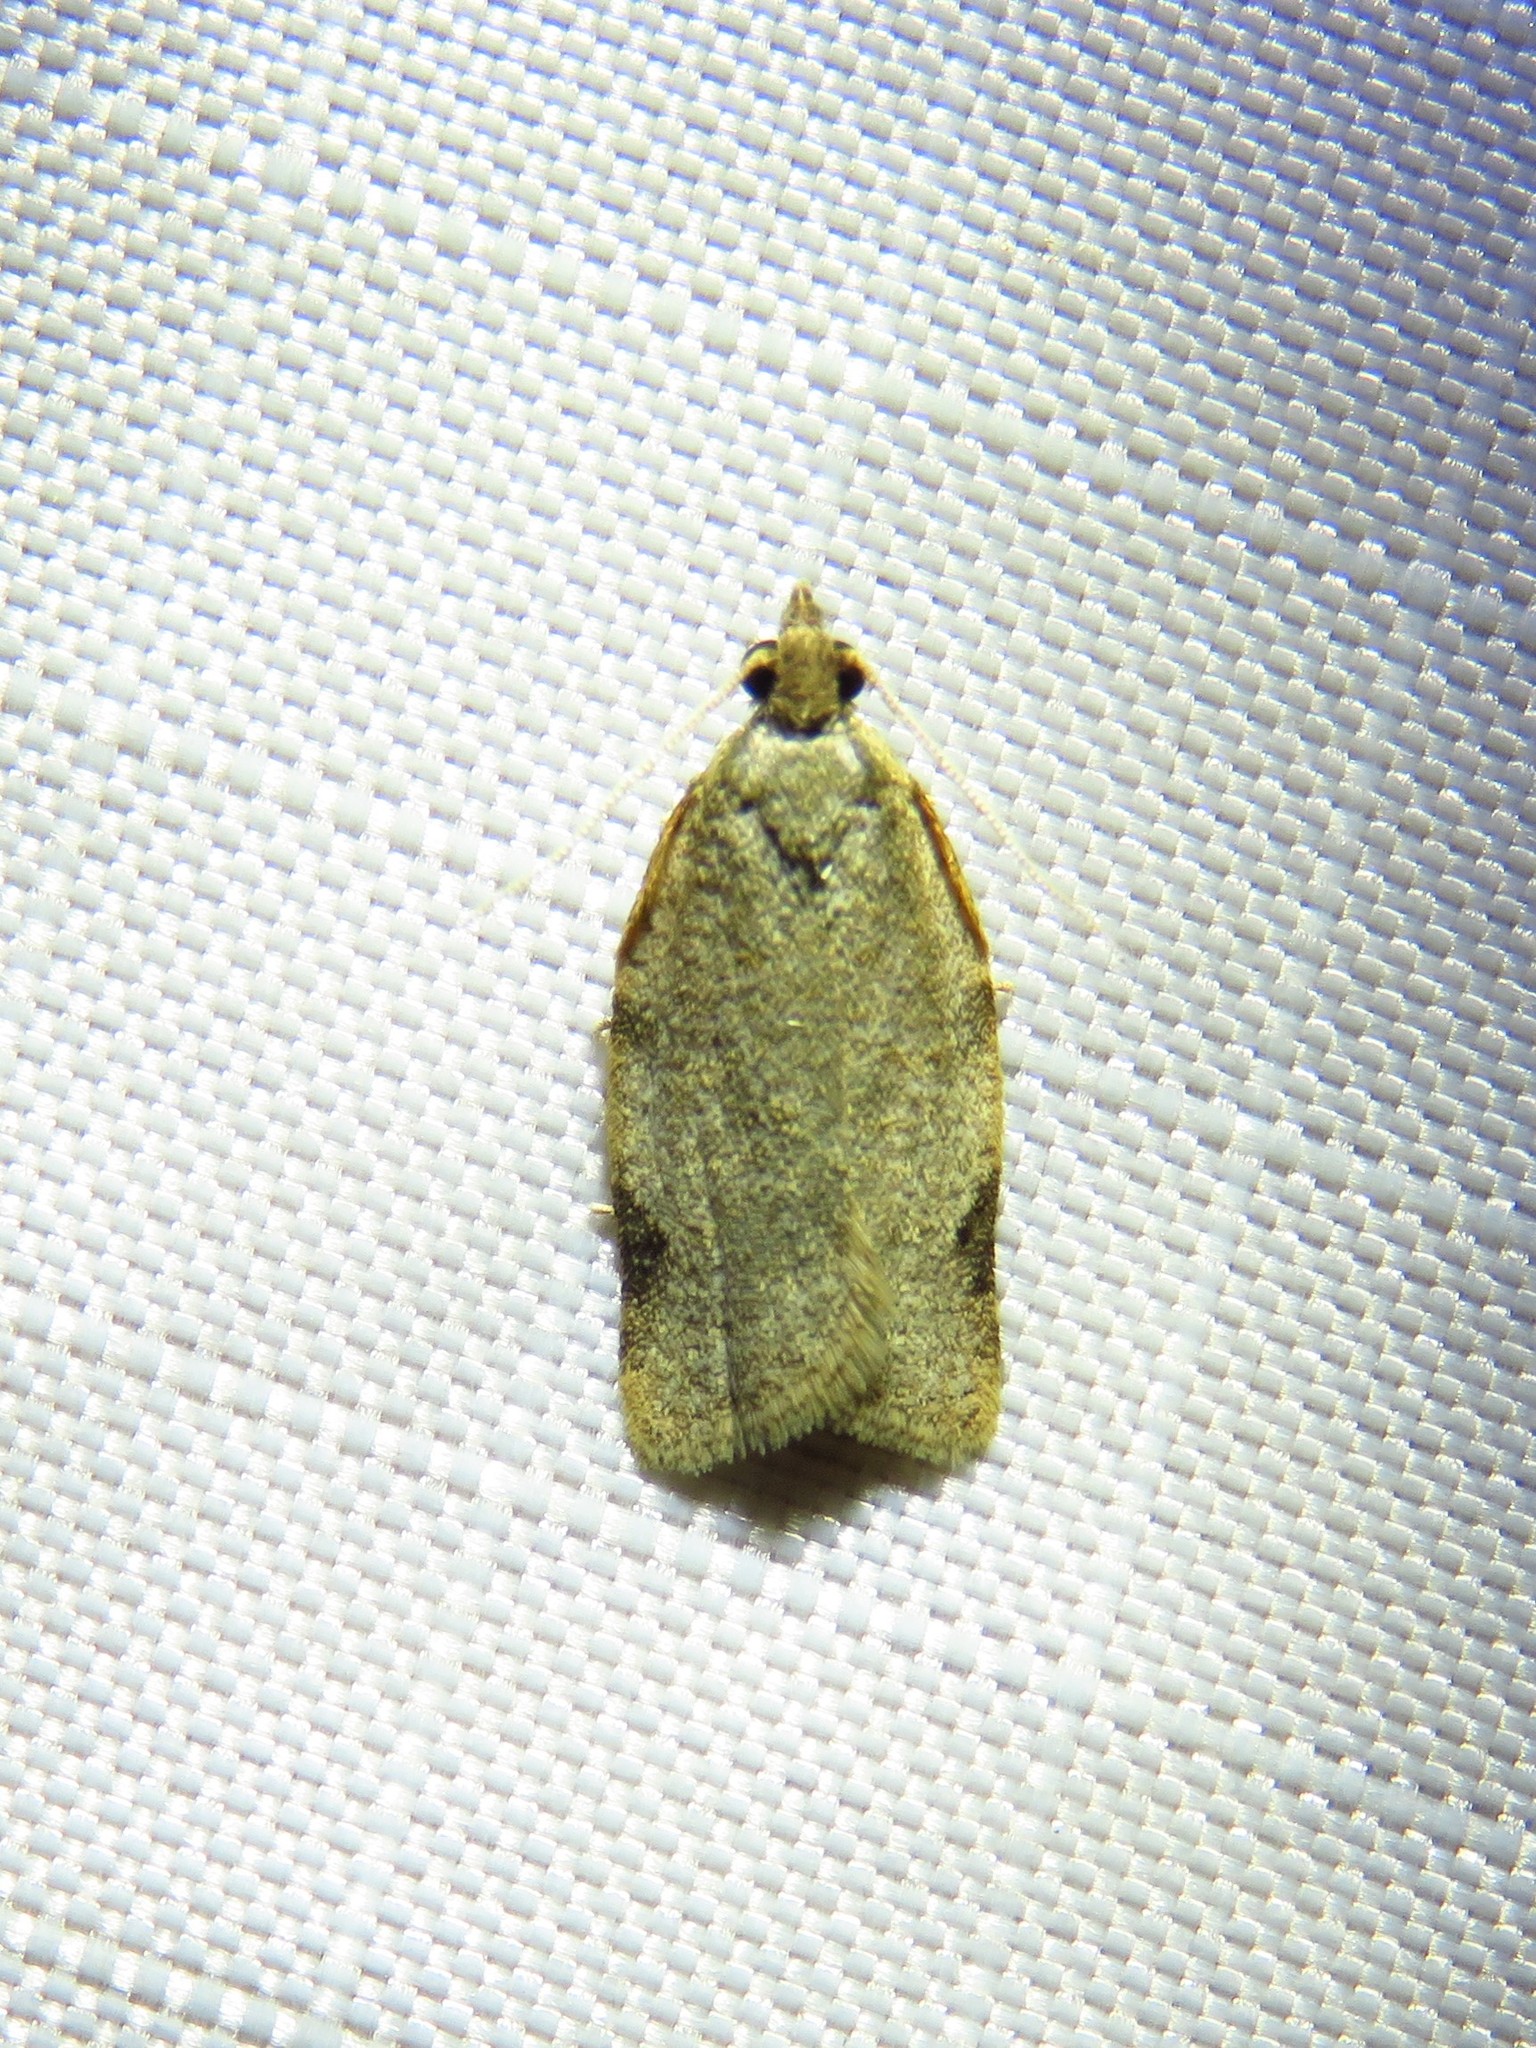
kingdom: Animalia
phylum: Arthropoda
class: Insecta
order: Lepidoptera
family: Tortricidae
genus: Clepsis
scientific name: Clepsis virescana
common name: Greenish apple moth
